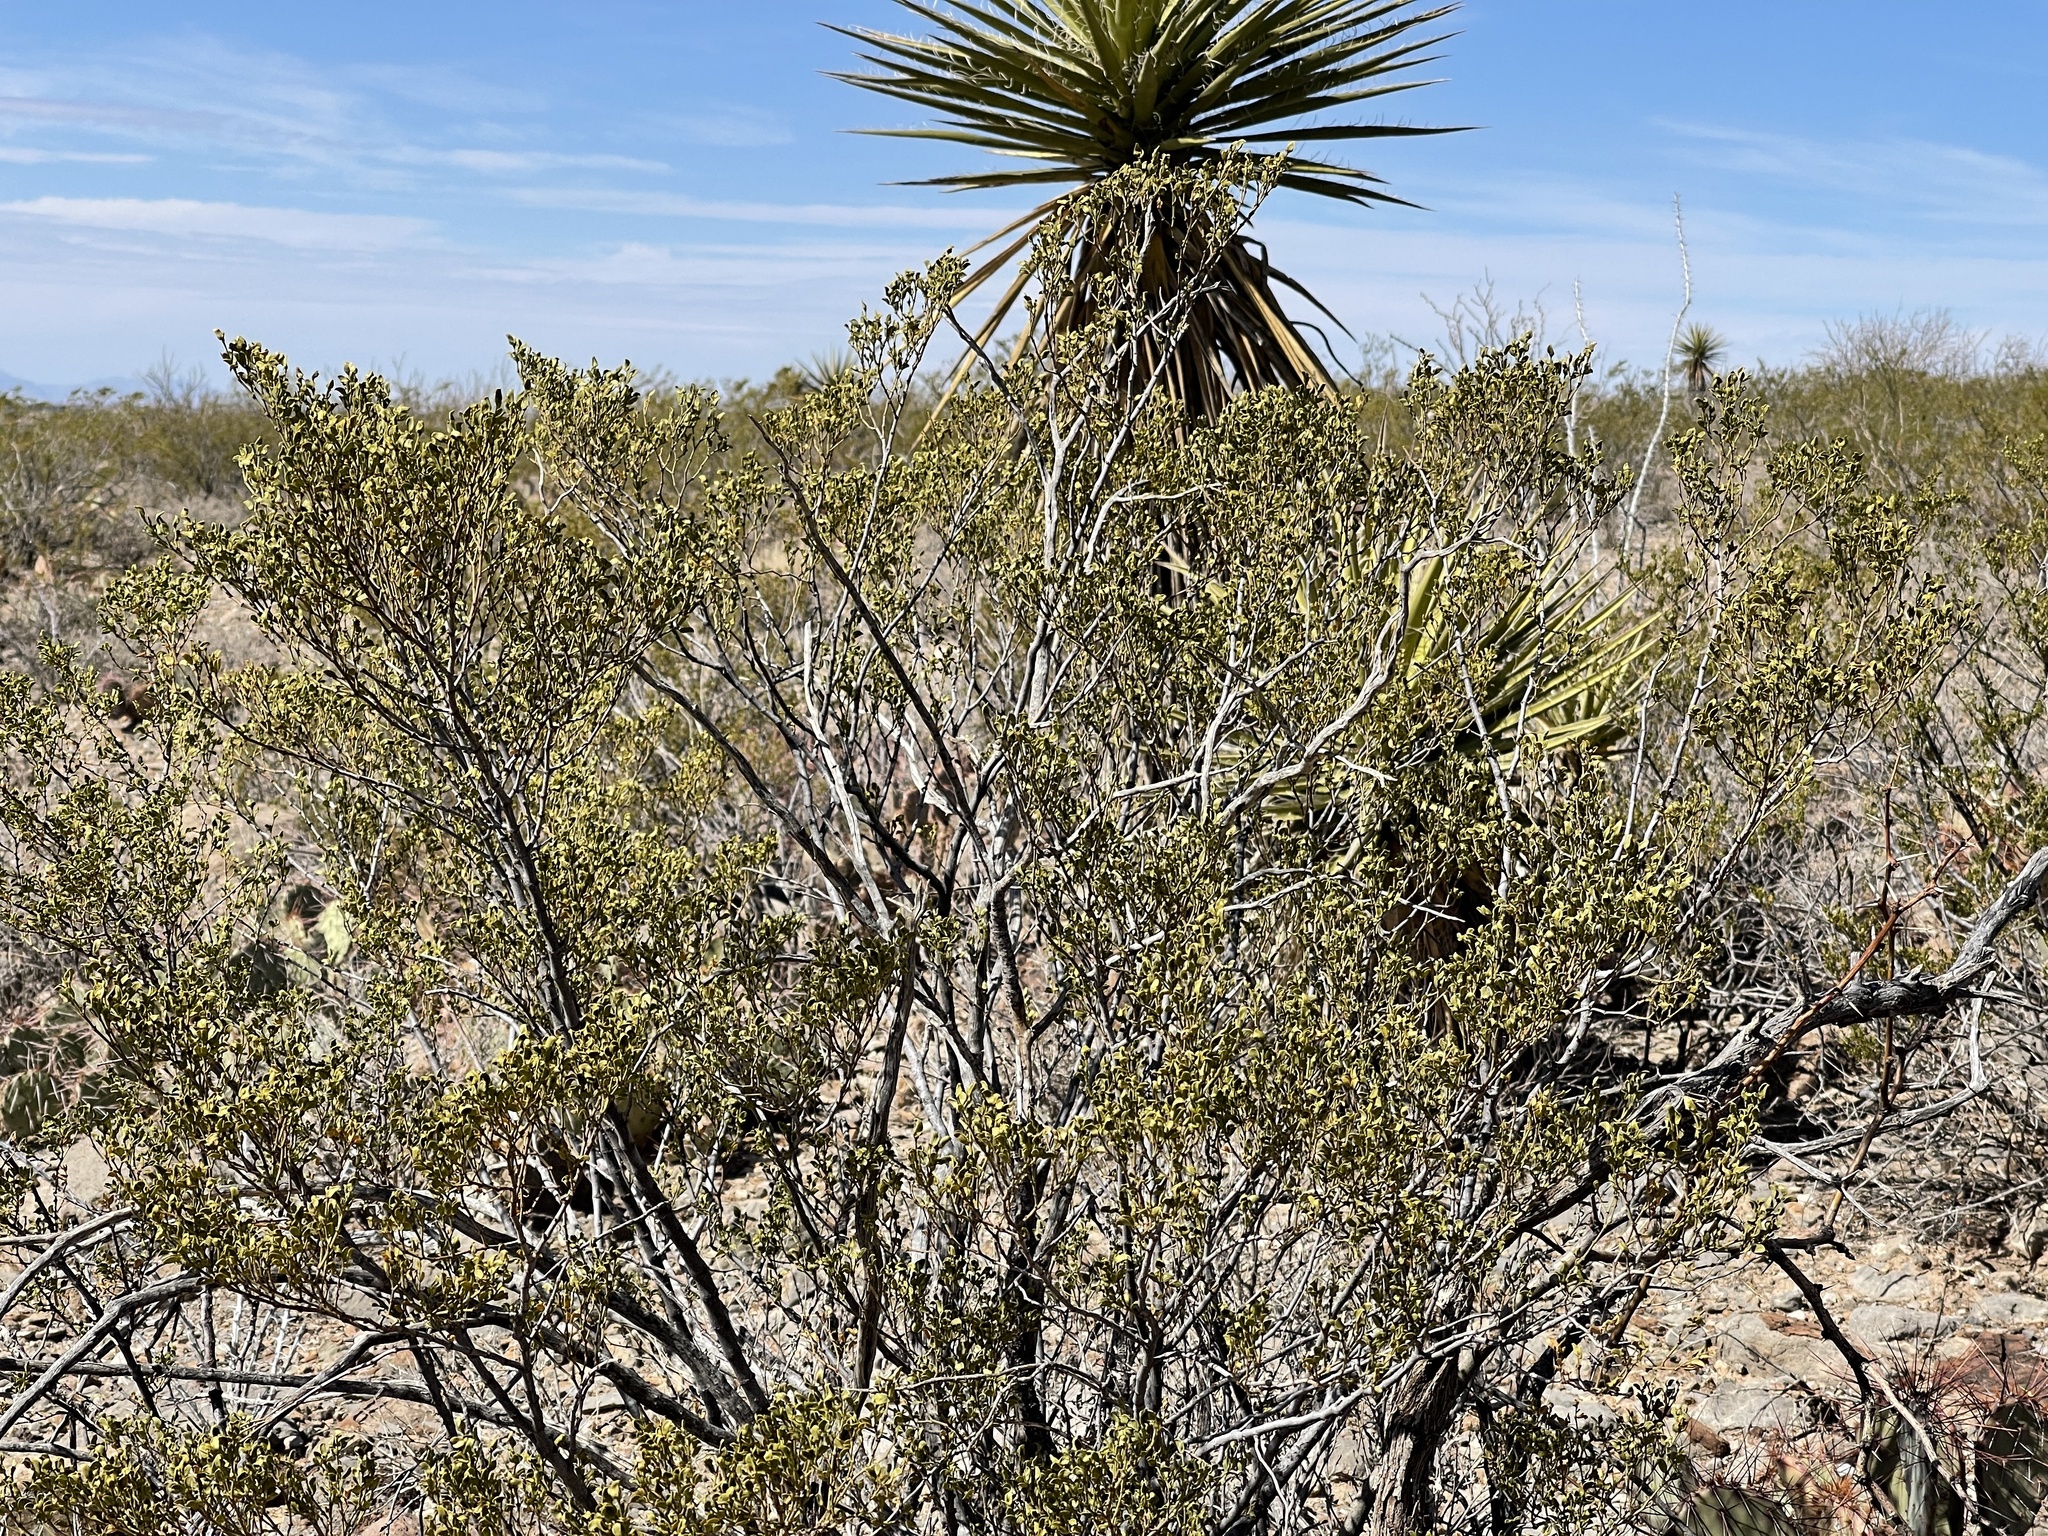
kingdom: Plantae
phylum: Tracheophyta
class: Magnoliopsida
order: Zygophyllales
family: Zygophyllaceae
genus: Larrea
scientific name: Larrea tridentata
